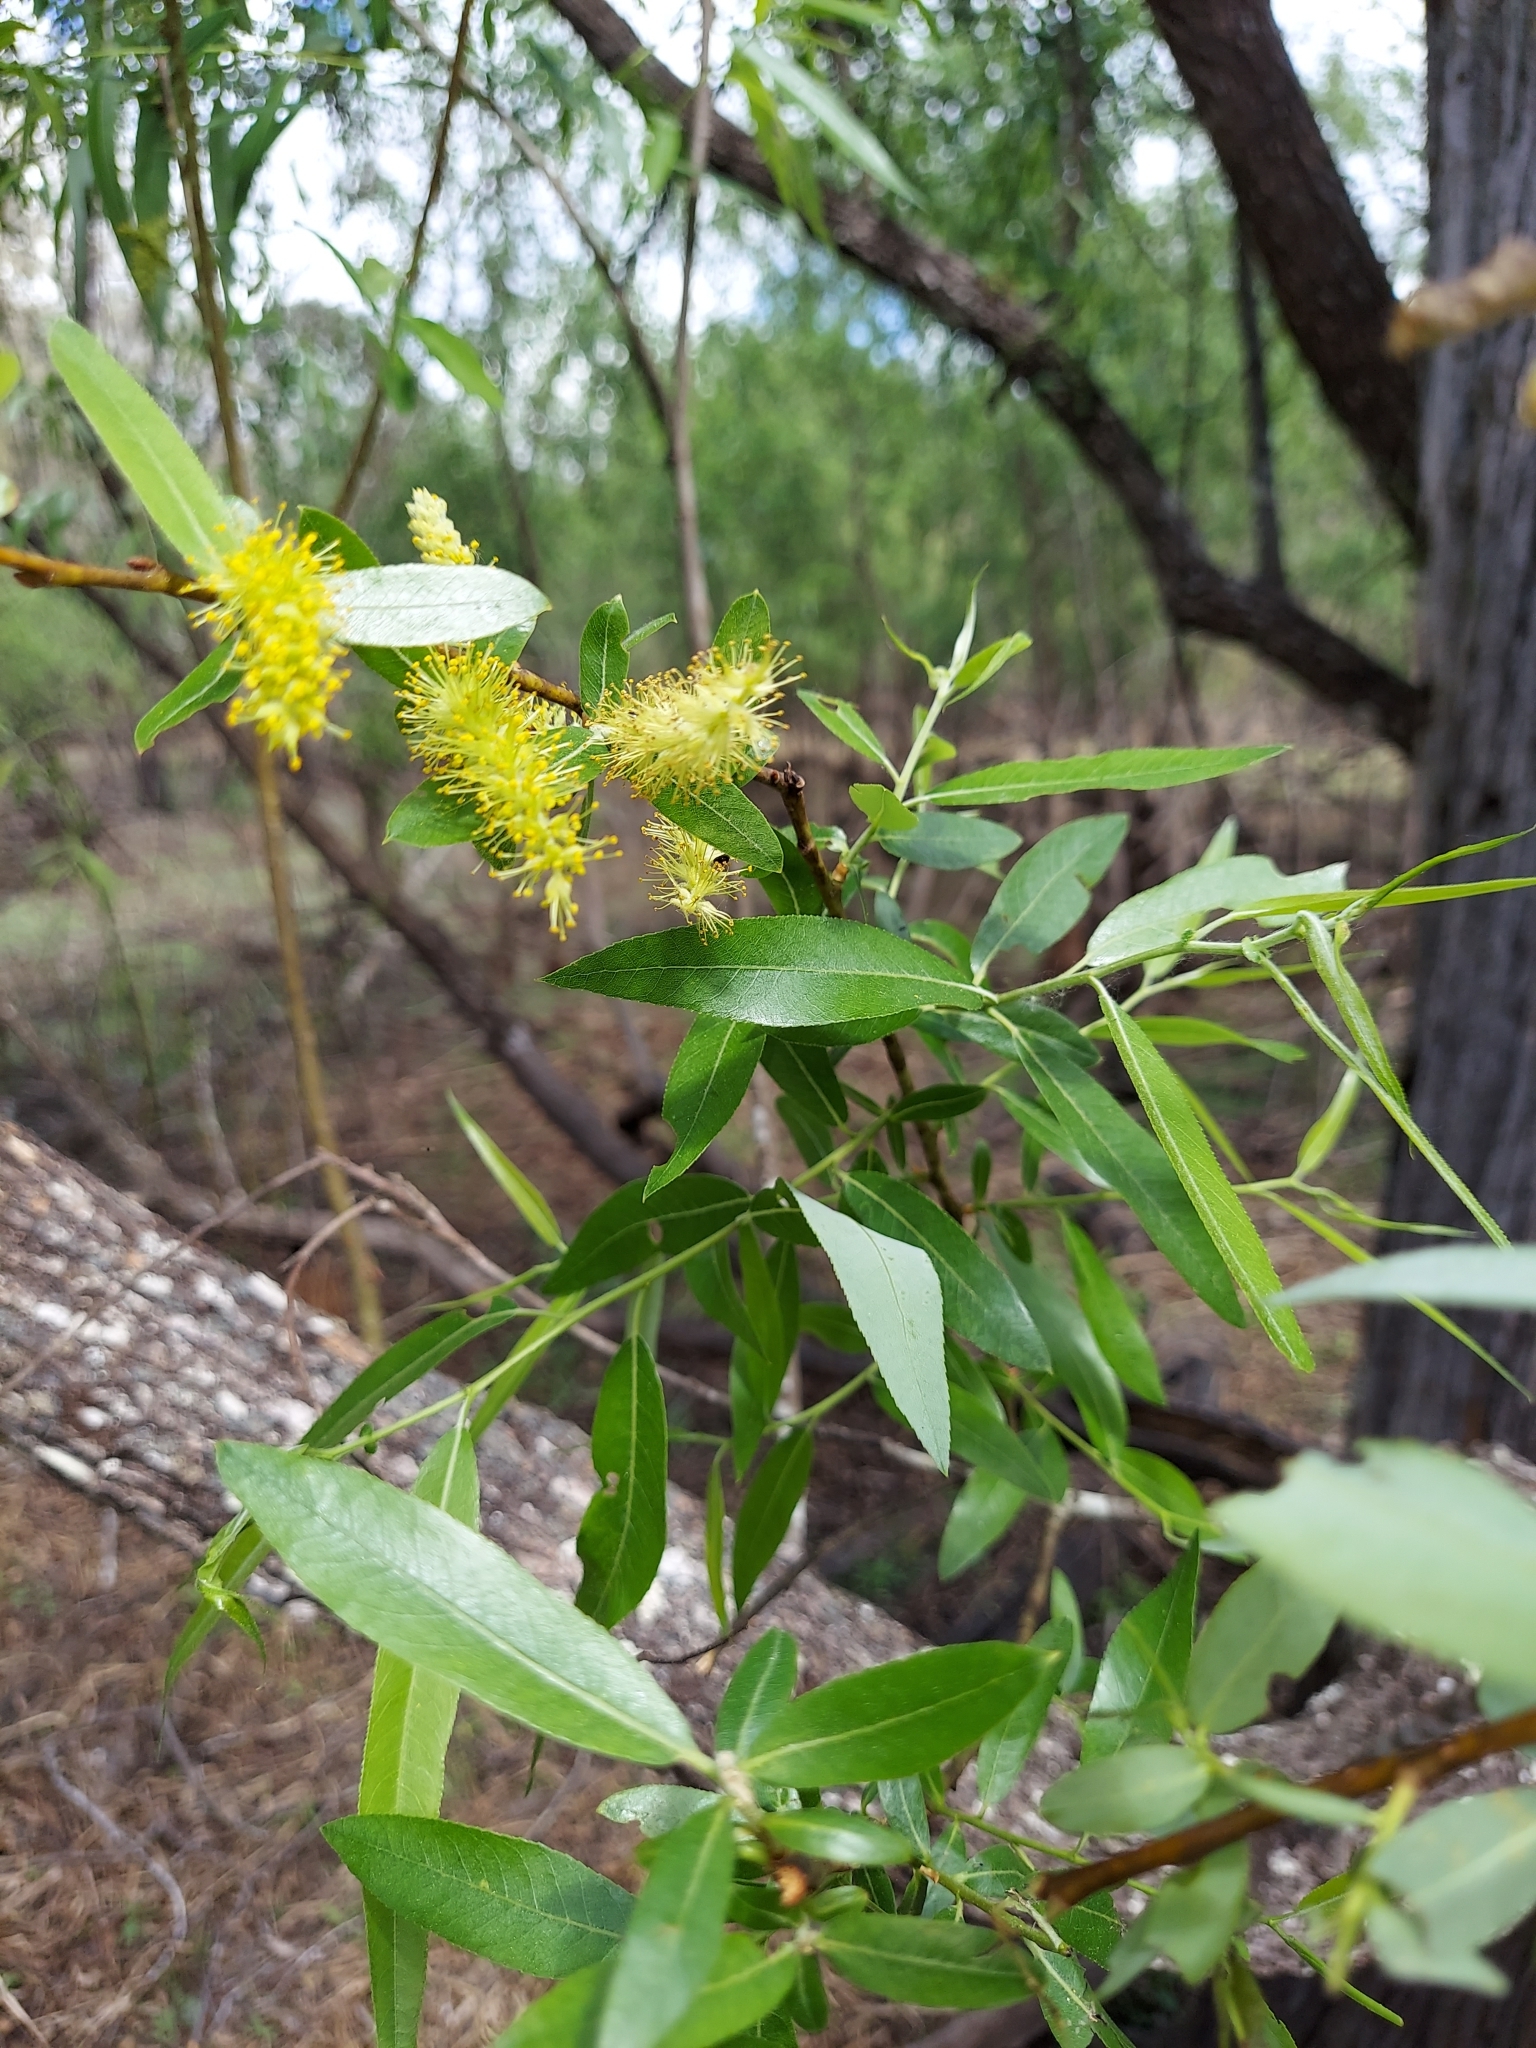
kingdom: Plantae
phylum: Tracheophyta
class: Magnoliopsida
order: Malpighiales
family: Salicaceae
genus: Salix
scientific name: Salix caroliniana
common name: Carolina willow
